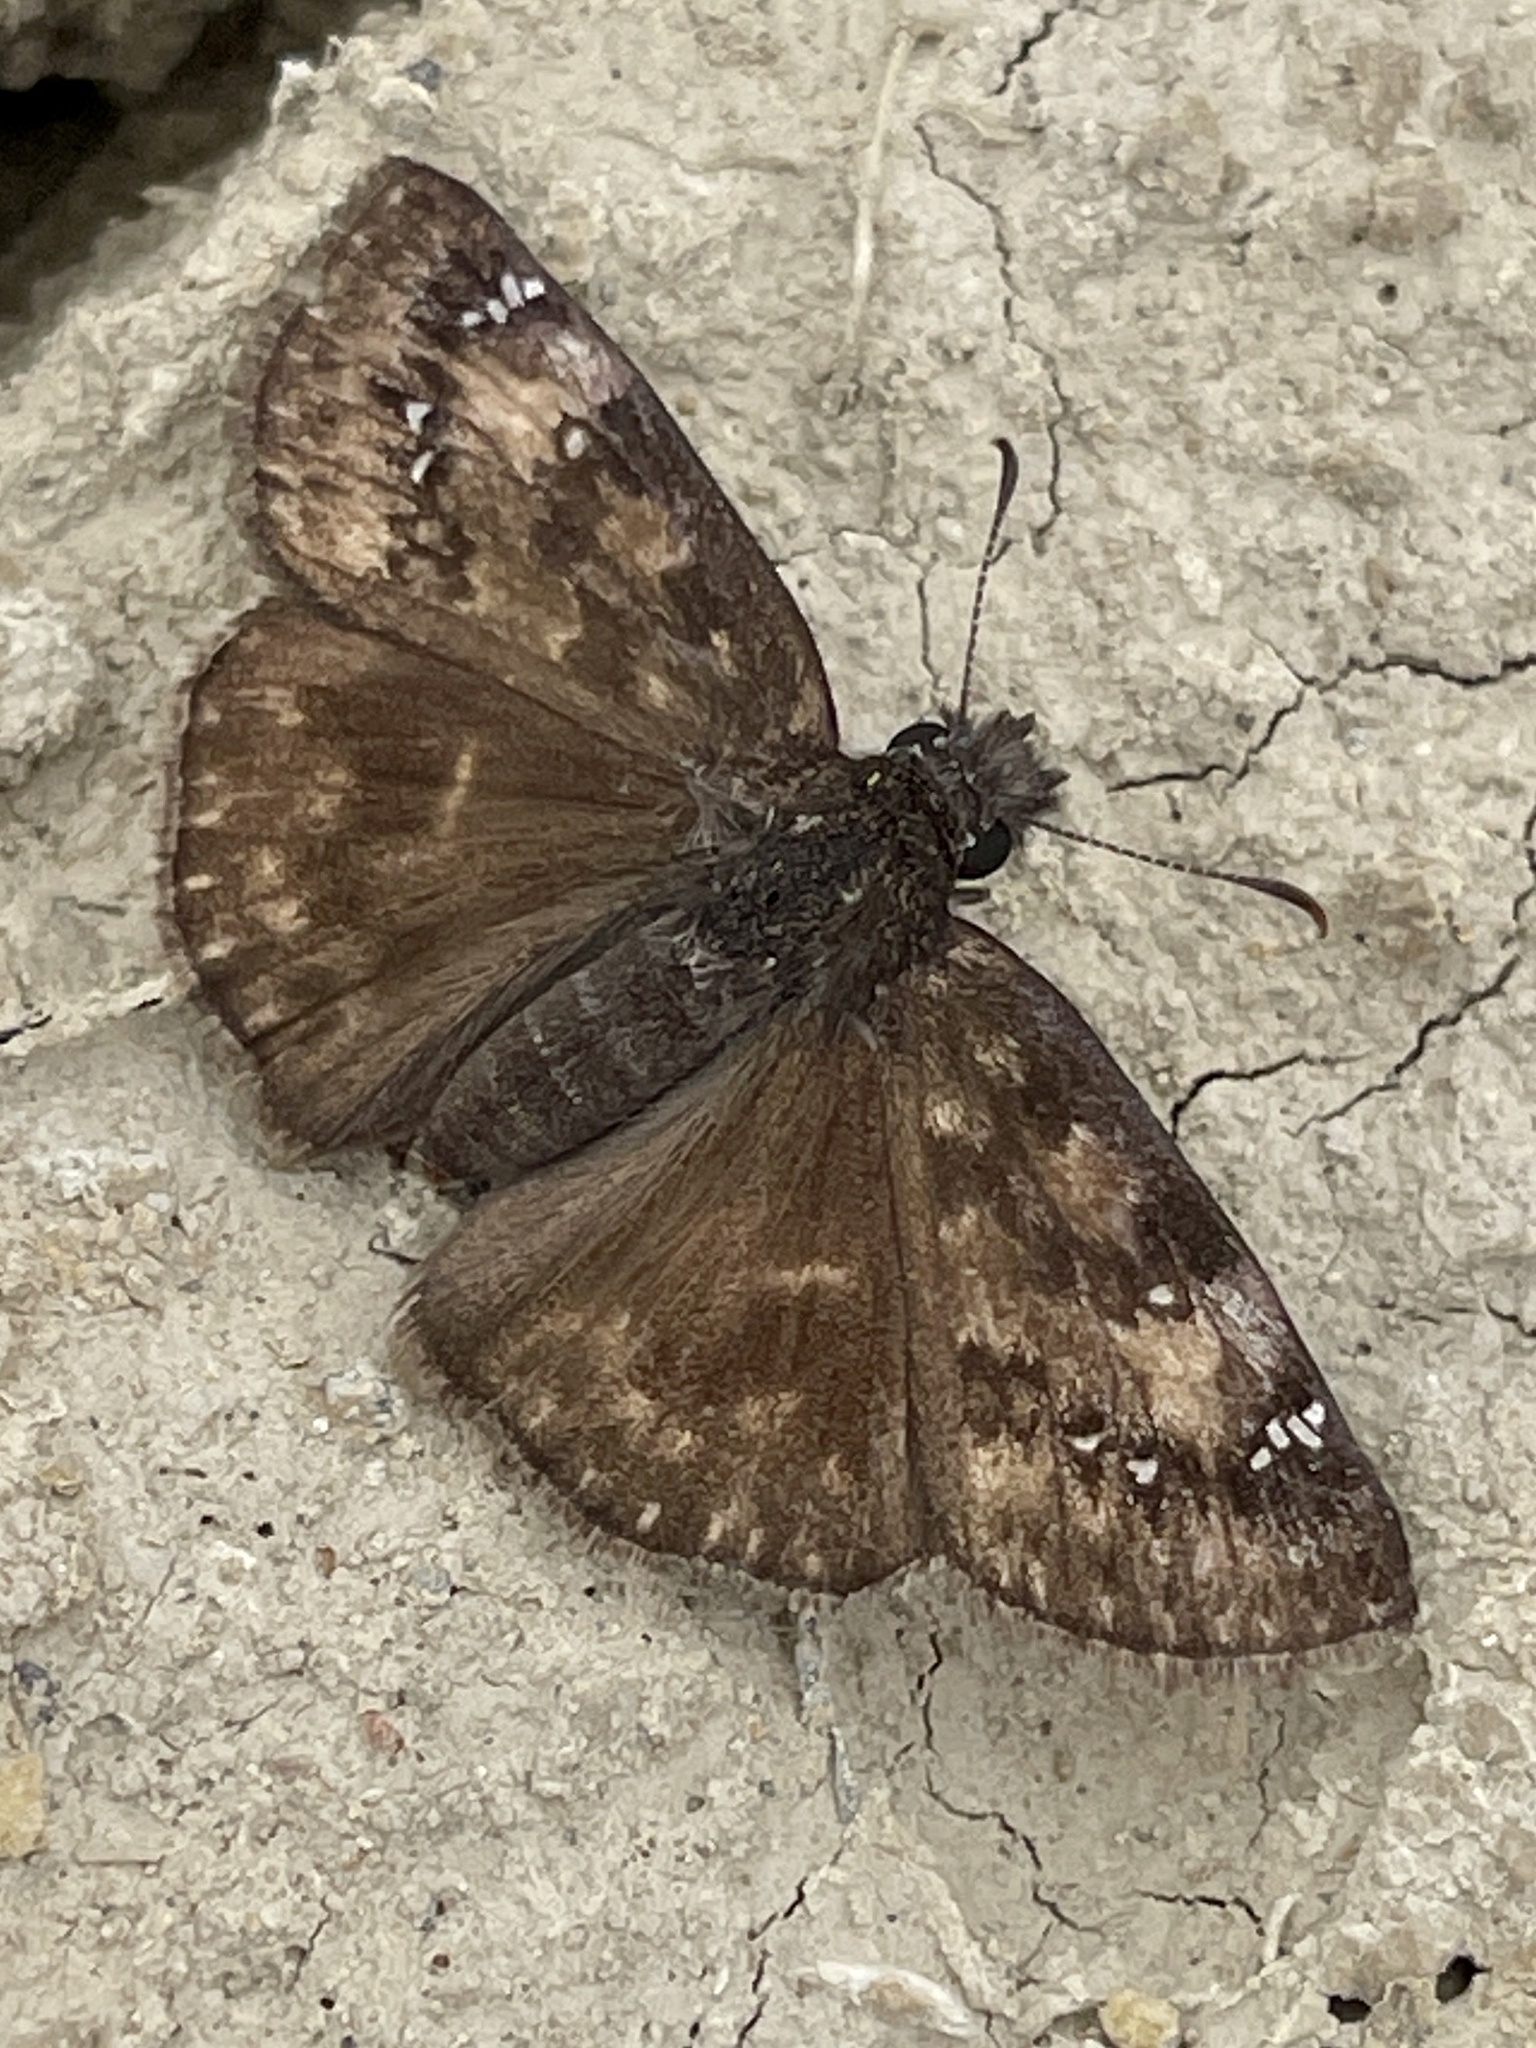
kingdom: Animalia
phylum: Arthropoda
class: Insecta
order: Lepidoptera
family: Hesperiidae
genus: Erynnis
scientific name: Erynnis baptisiae
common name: Wild indigo duskywing
